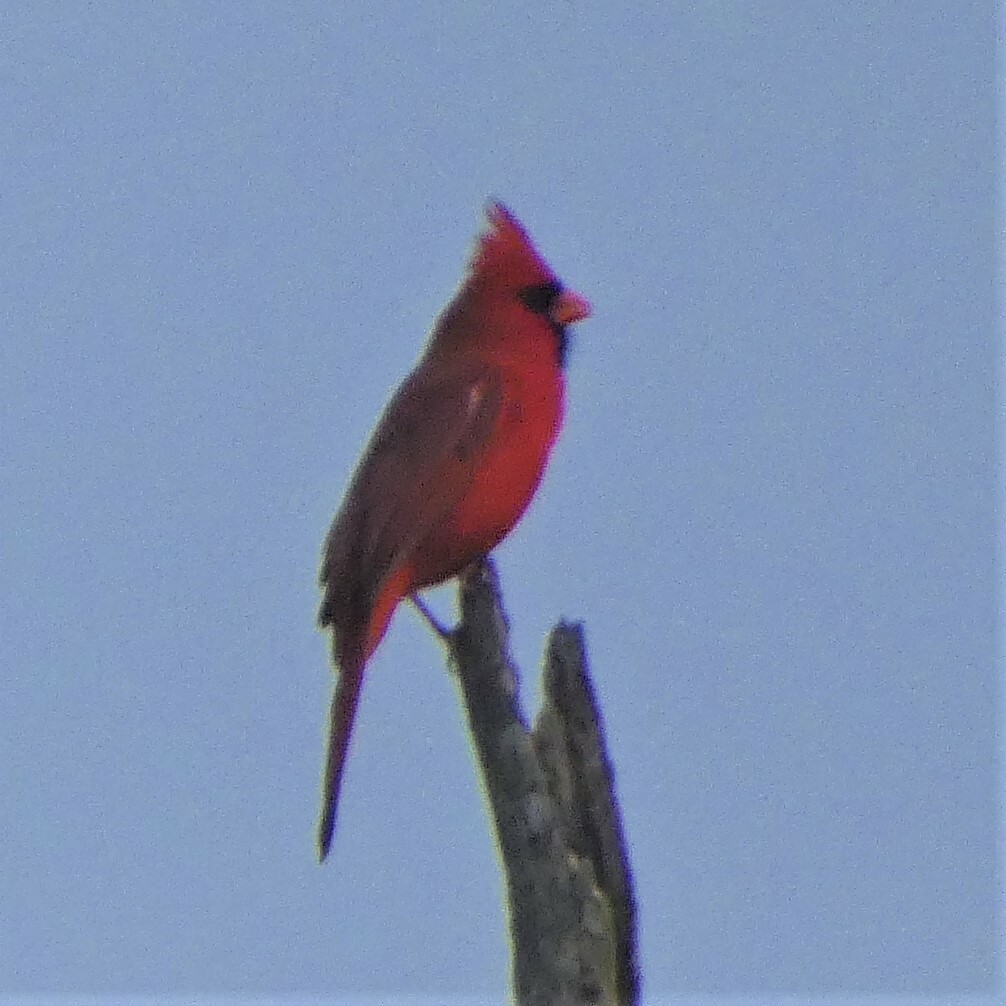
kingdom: Animalia
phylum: Chordata
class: Aves
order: Passeriformes
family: Cardinalidae
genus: Cardinalis
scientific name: Cardinalis cardinalis
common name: Northern cardinal
